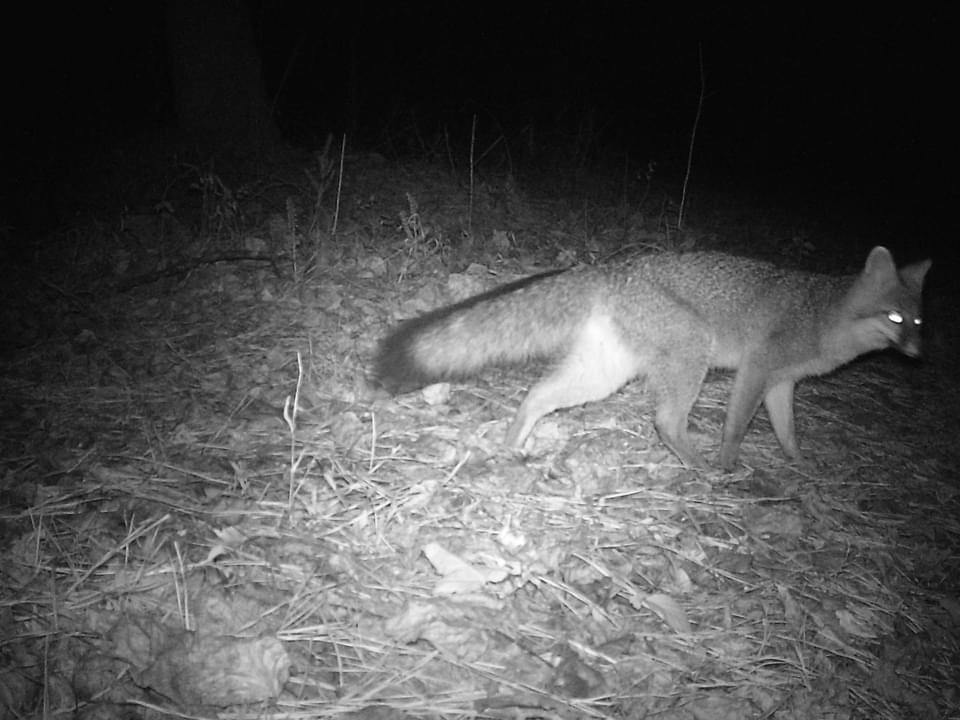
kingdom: Animalia
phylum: Chordata
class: Mammalia
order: Carnivora
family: Canidae
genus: Urocyon
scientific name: Urocyon cinereoargenteus
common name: Gray fox
